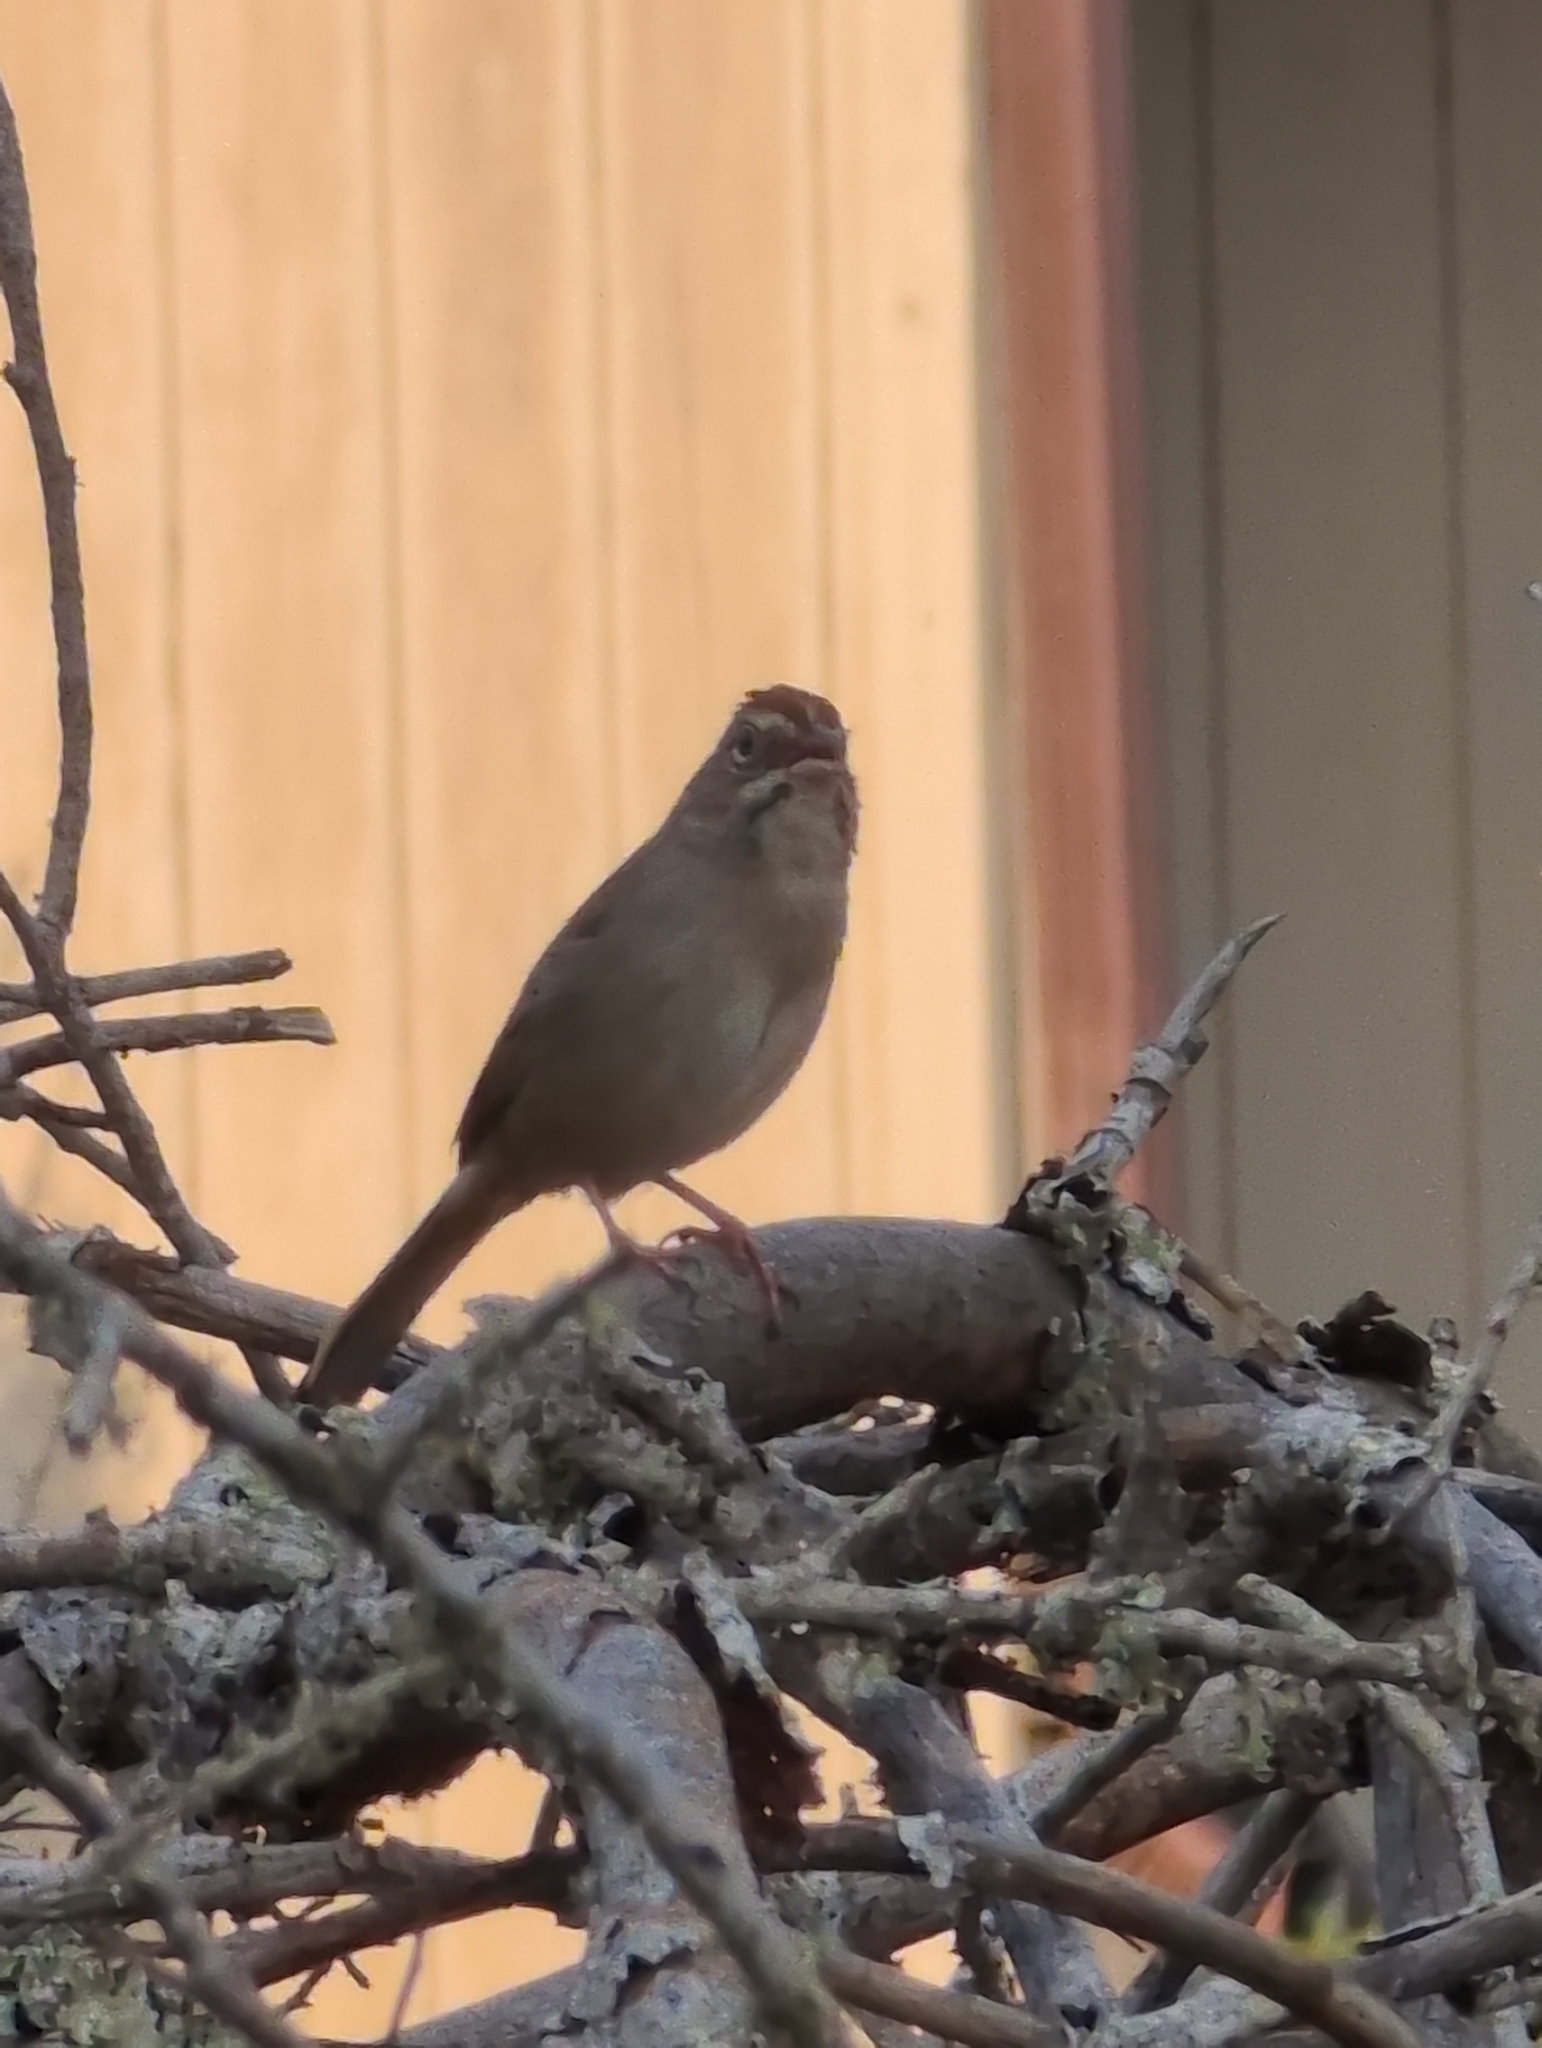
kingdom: Animalia
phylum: Chordata
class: Aves
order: Passeriformes
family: Passerellidae
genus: Aimophila
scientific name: Aimophila ruficeps
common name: Rufous-crowned sparrow
